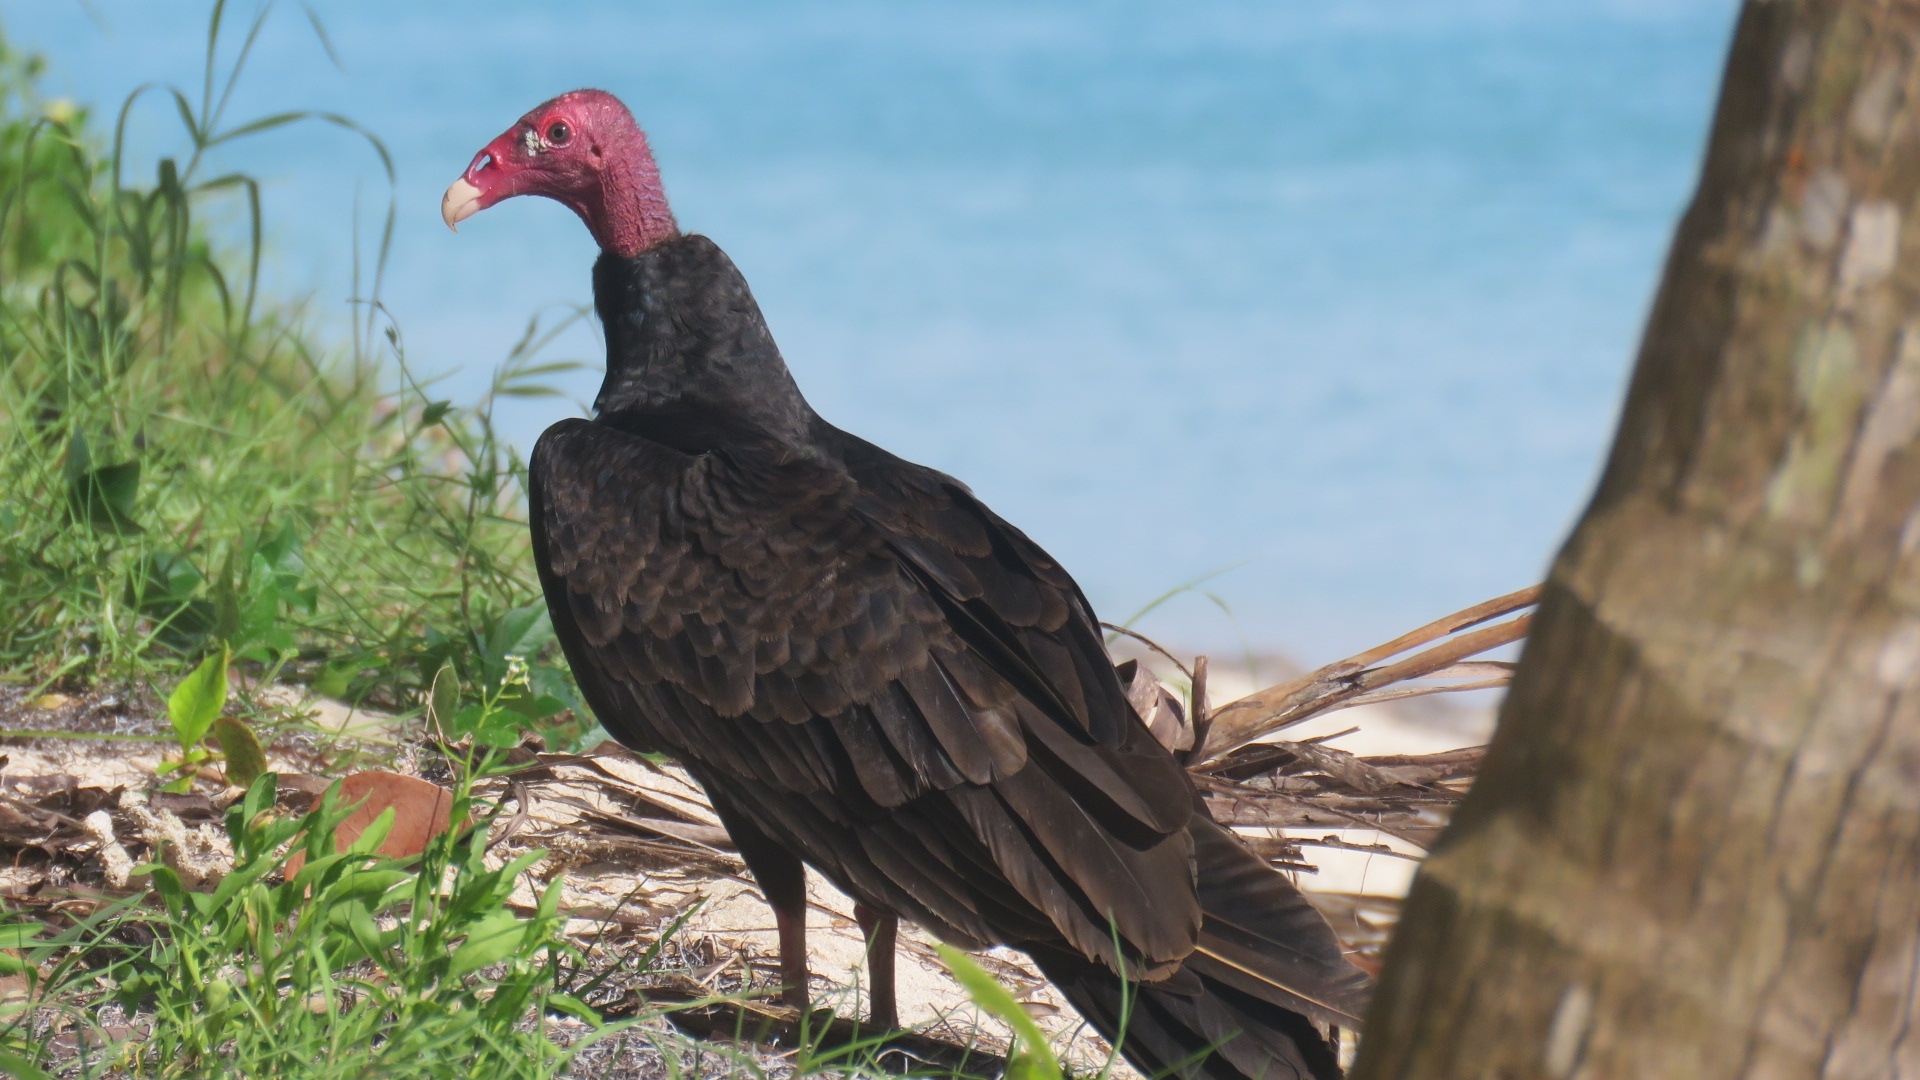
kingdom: Animalia
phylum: Chordata
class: Aves
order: Accipitriformes
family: Cathartidae
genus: Cathartes
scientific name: Cathartes aura
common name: Turkey vulture
